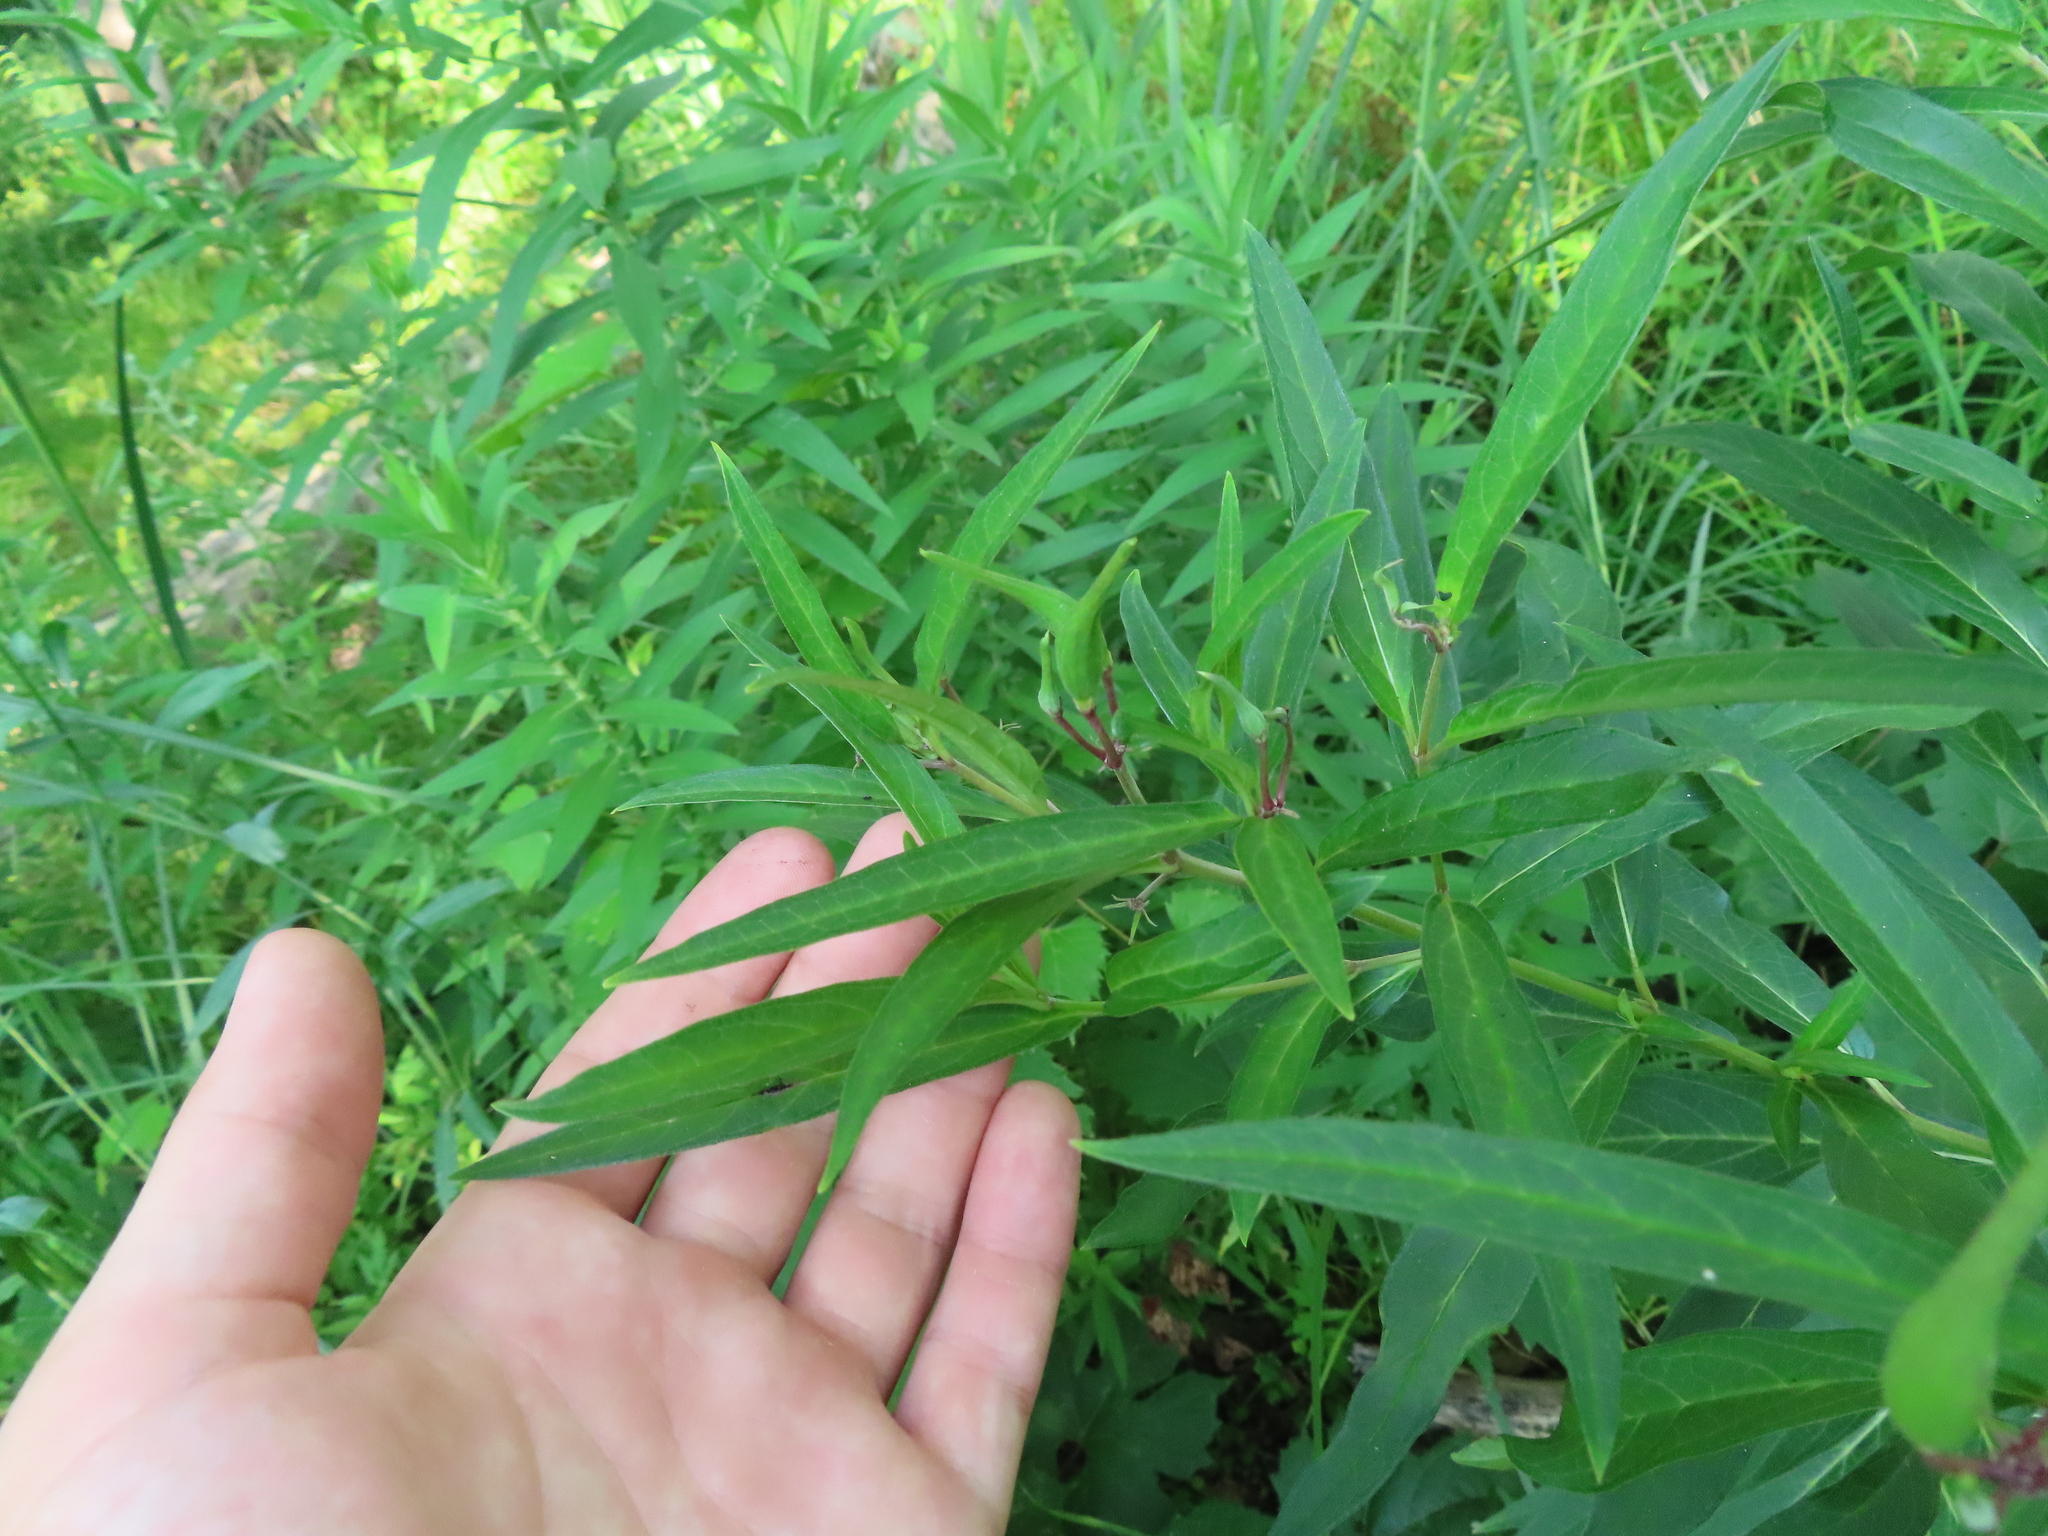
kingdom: Plantae
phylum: Tracheophyta
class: Magnoliopsida
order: Gentianales
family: Apocynaceae
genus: Asclepias
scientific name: Asclepias incarnata
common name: Swamp milkweed
